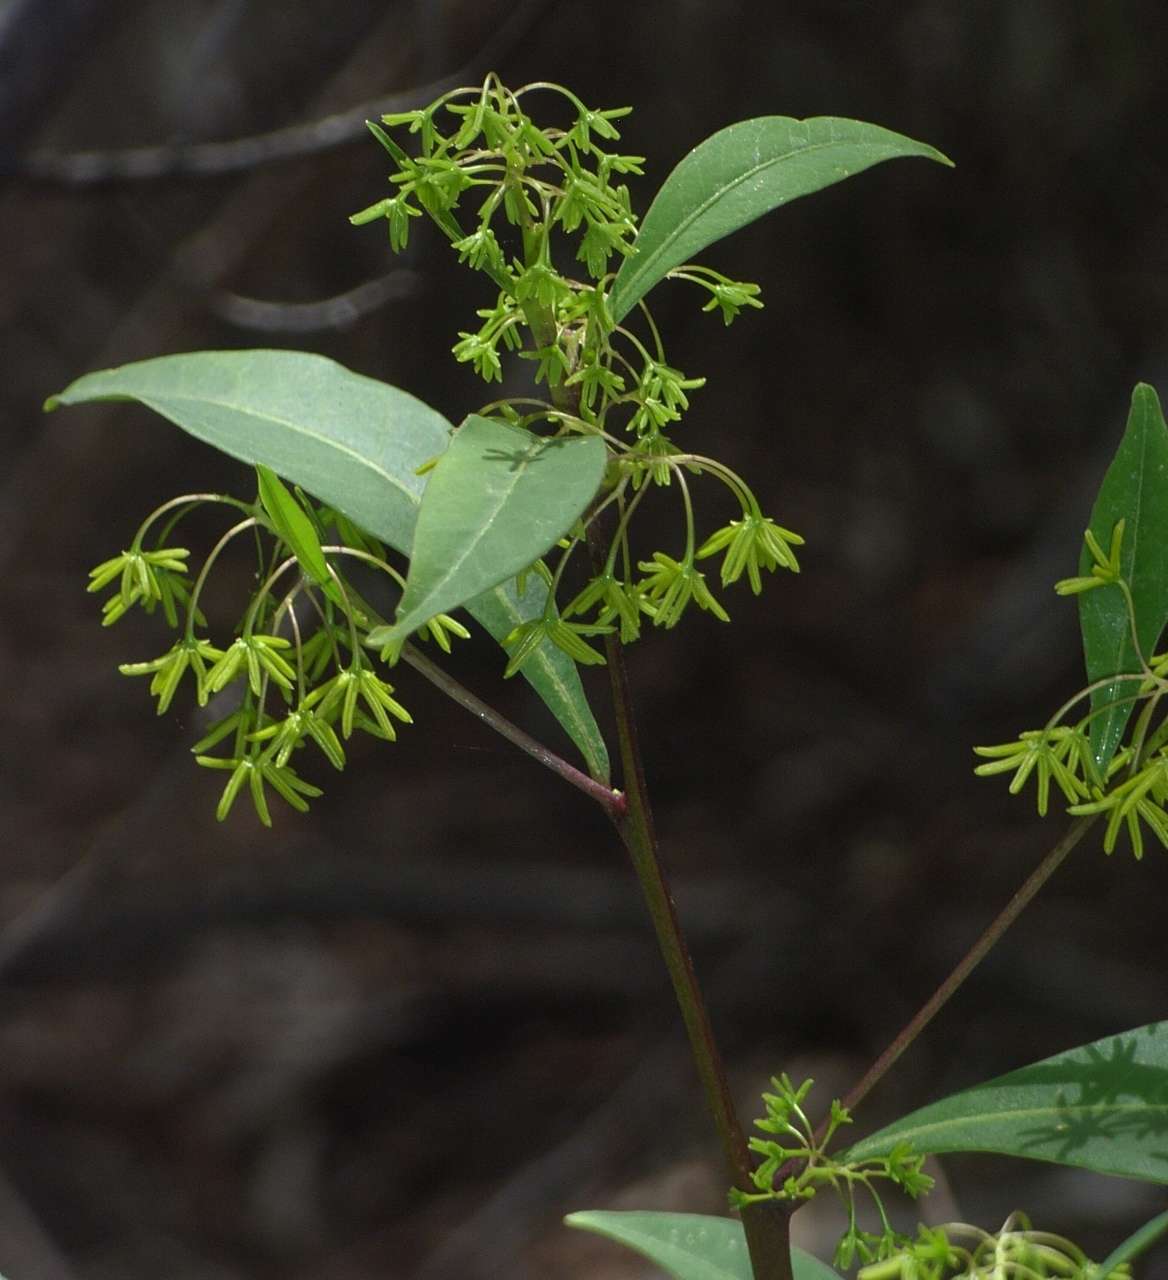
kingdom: Plantae
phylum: Tracheophyta
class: Magnoliopsida
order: Sapindales
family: Sapindaceae
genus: Dodonaea
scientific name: Dodonaea triquetra
